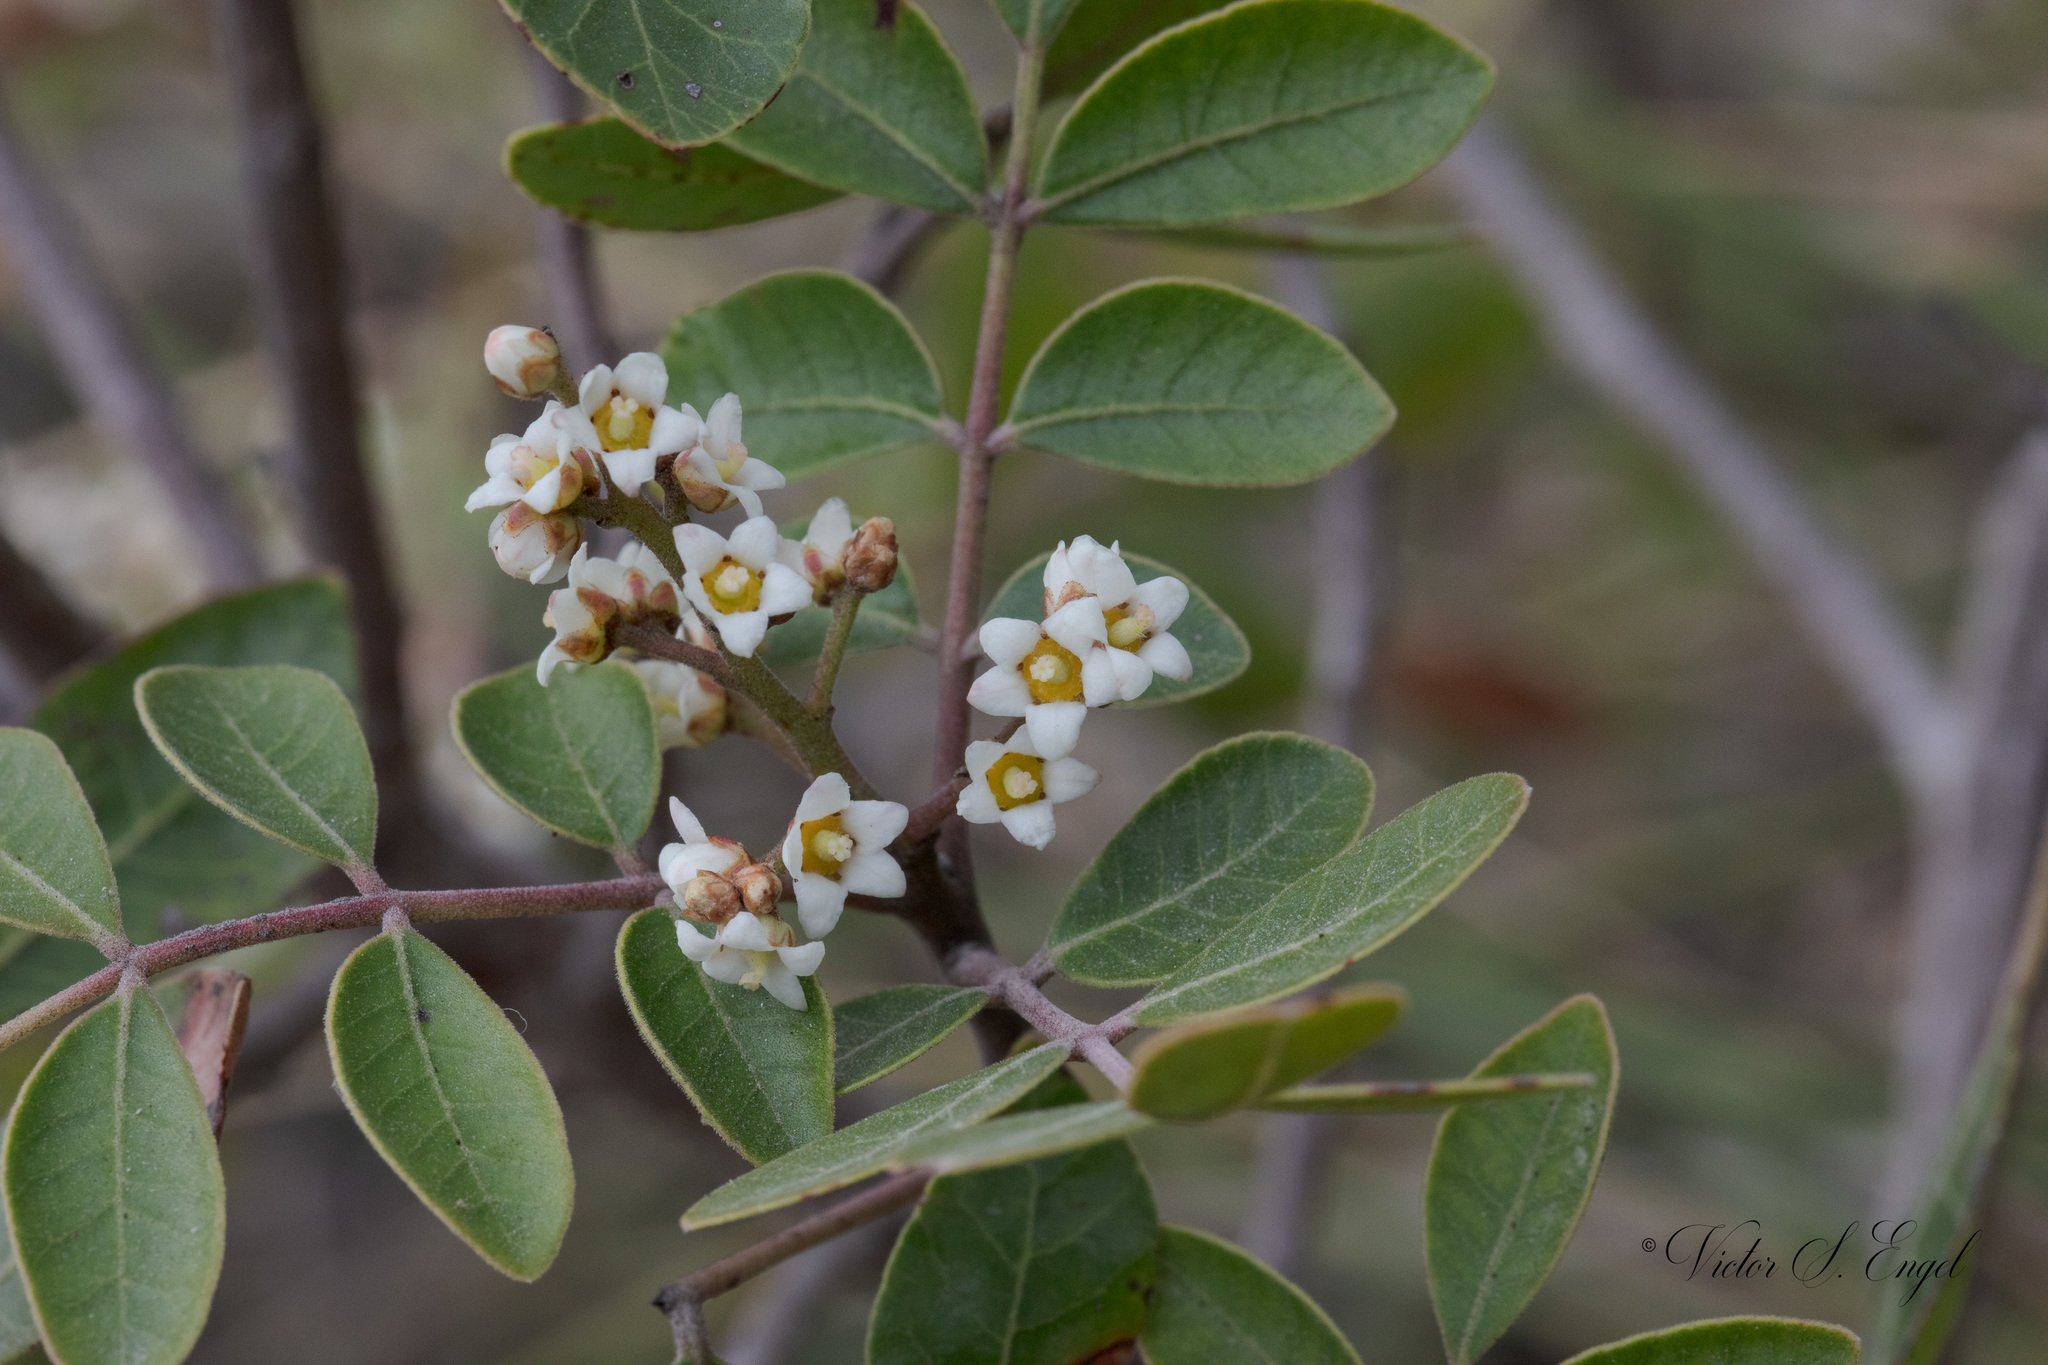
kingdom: Plantae
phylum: Tracheophyta
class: Magnoliopsida
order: Sapindales
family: Anacardiaceae
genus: Rhus
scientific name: Rhus virens
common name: Evergreen sumac
